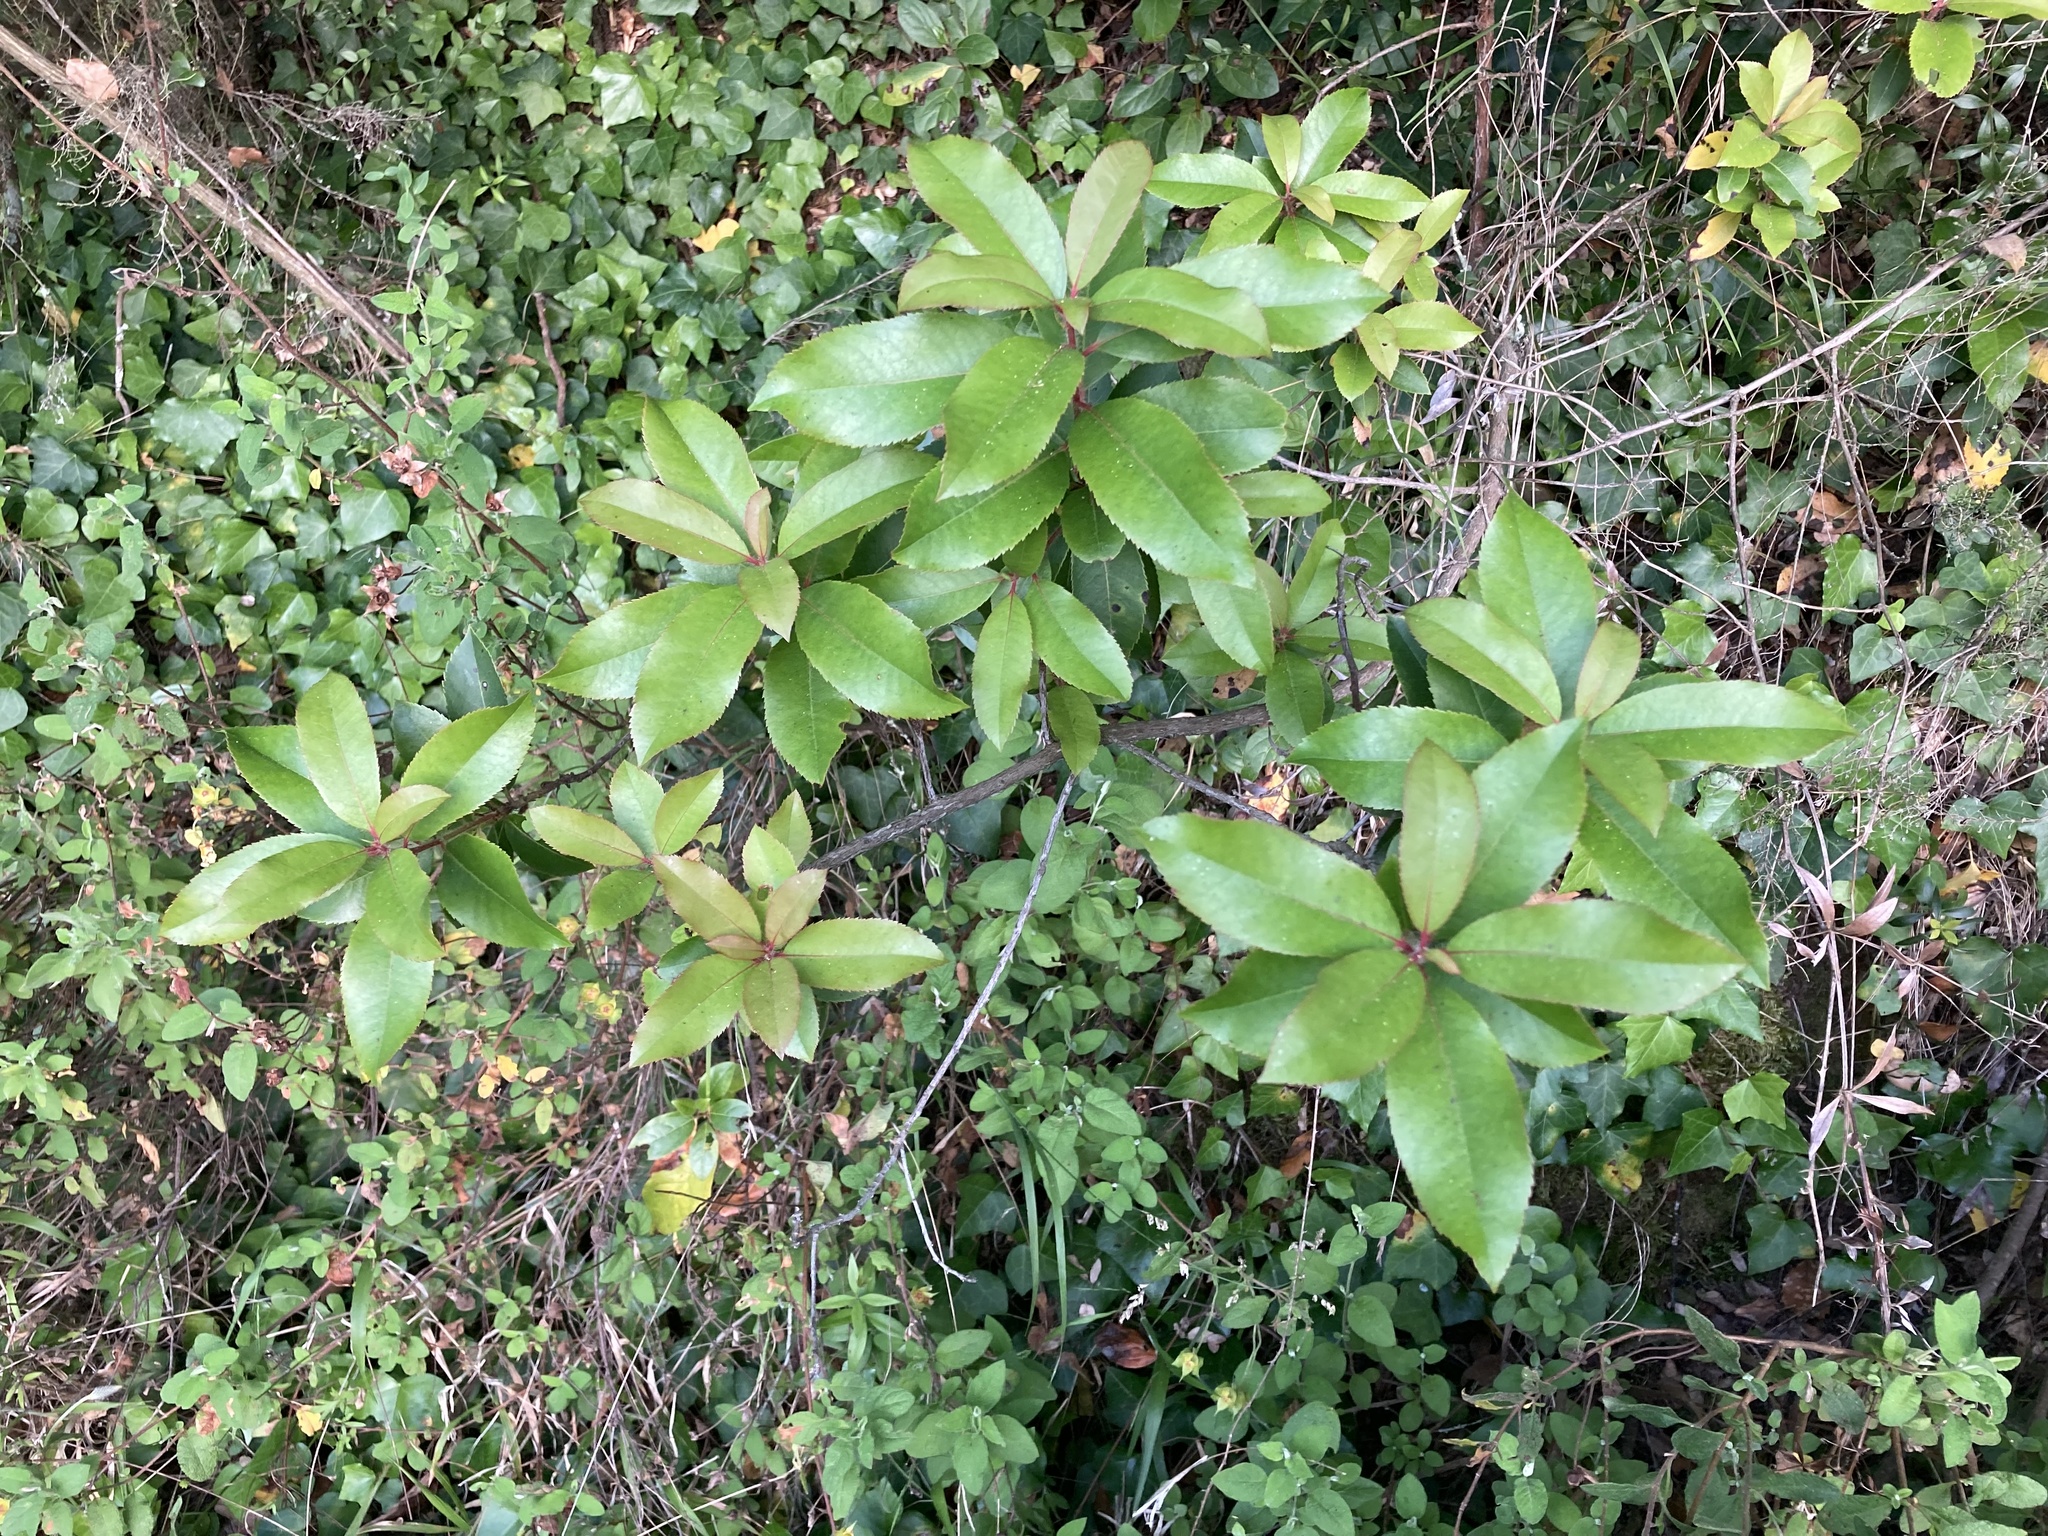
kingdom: Plantae
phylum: Tracheophyta
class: Magnoliopsida
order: Ericales
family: Ericaceae
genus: Arbutus
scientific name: Arbutus unedo
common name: Strawberry-tree
